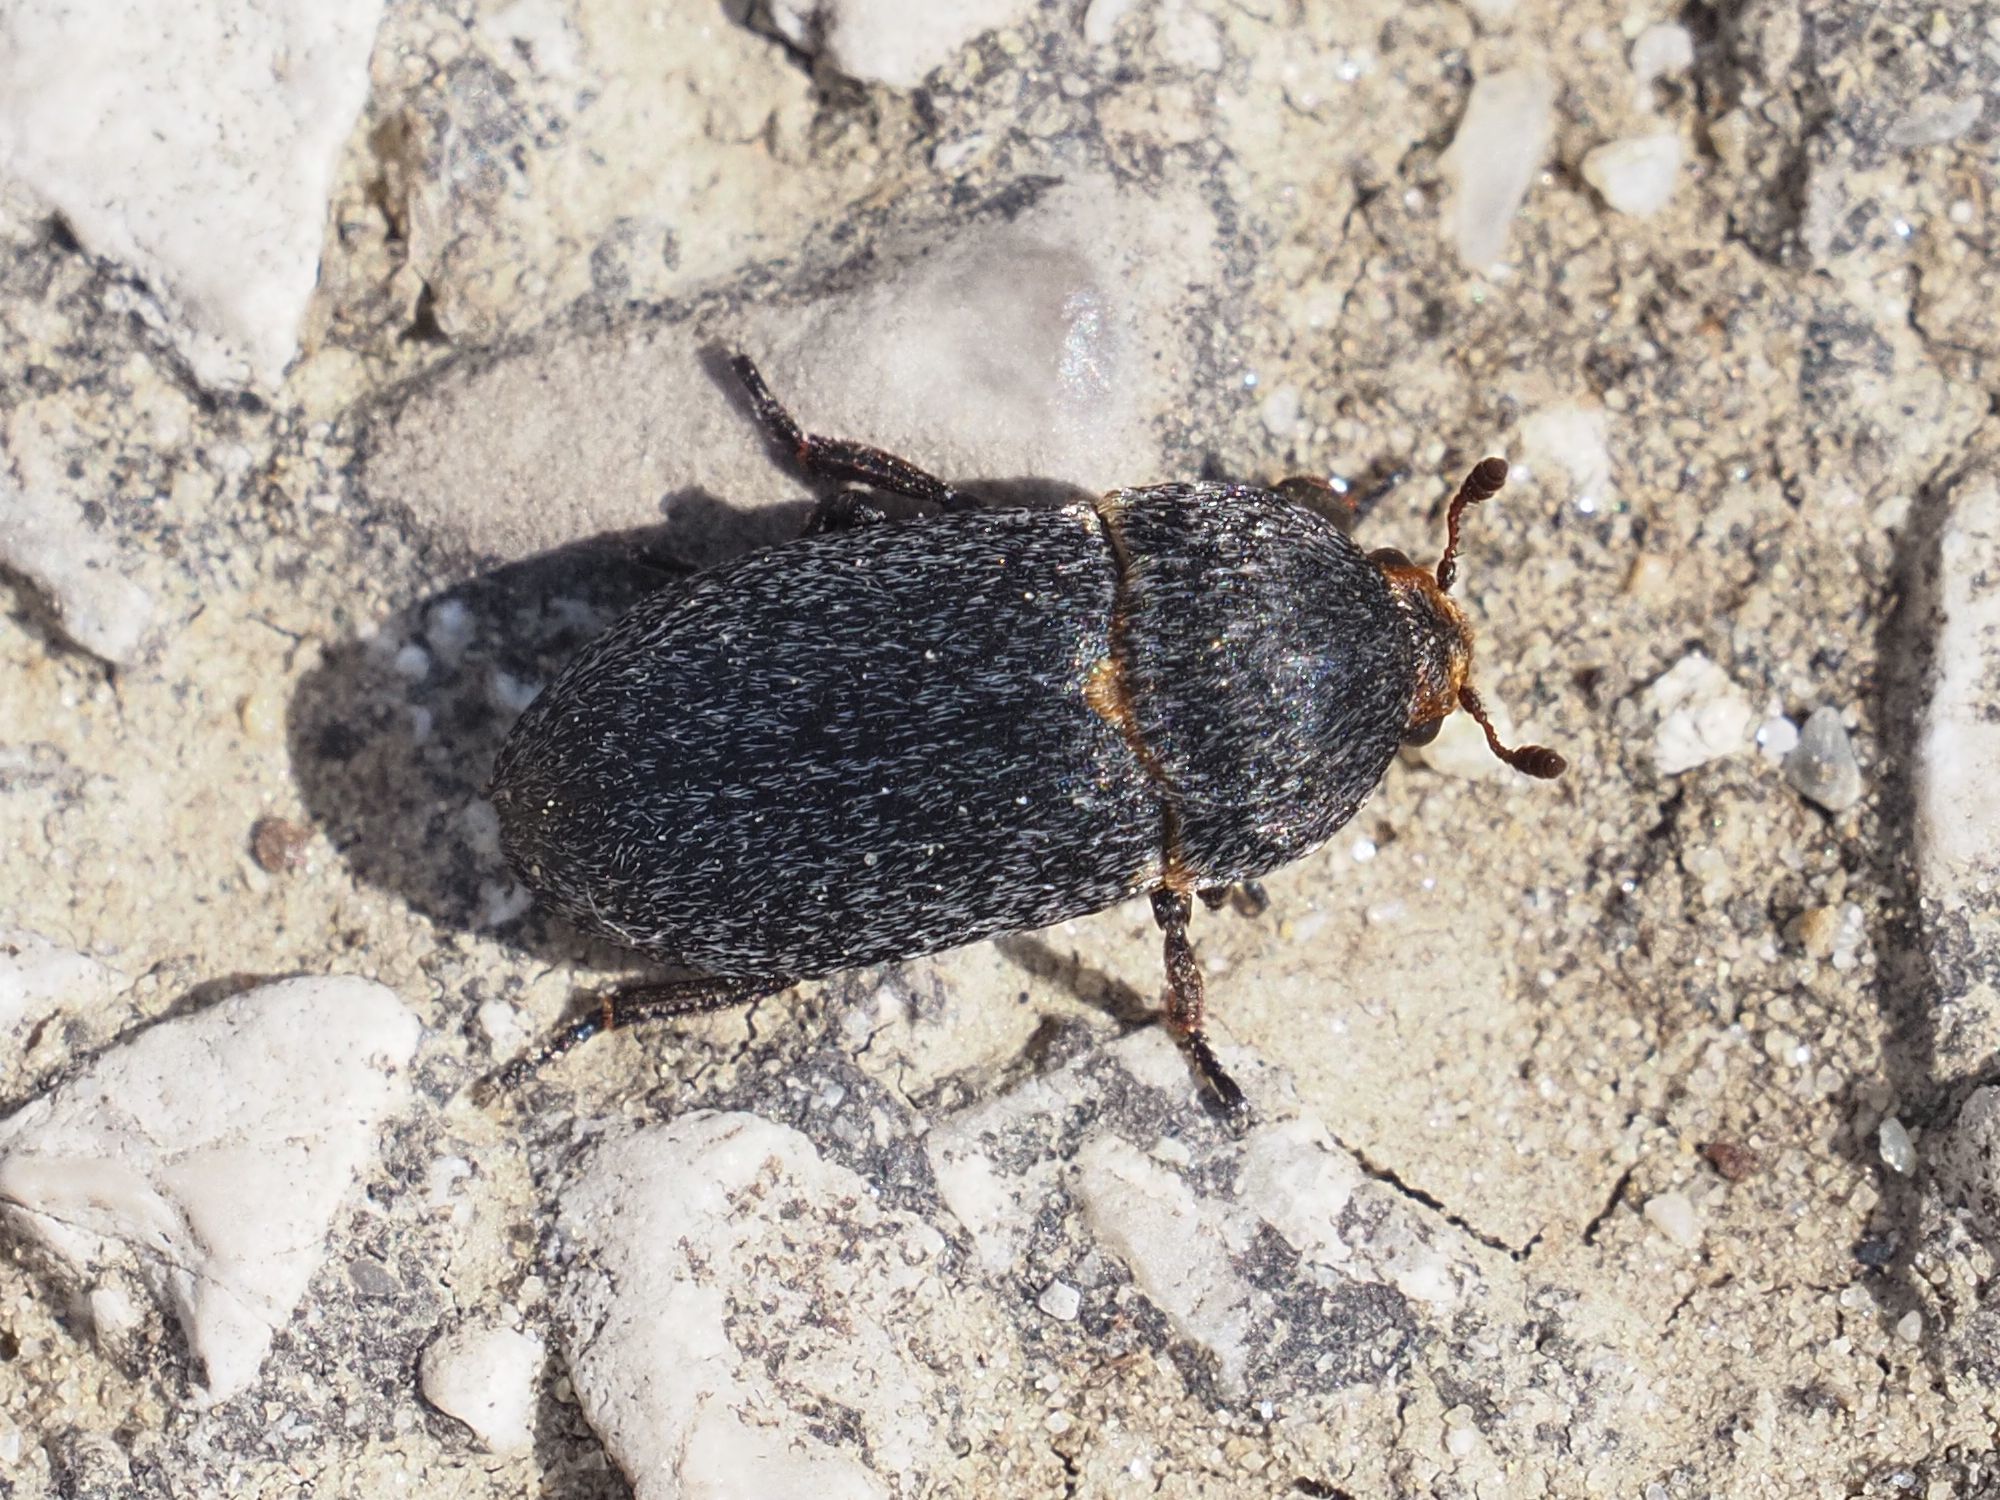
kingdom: Animalia
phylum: Arthropoda
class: Insecta
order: Coleoptera
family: Dermestidae
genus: Dermestes
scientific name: Dermestes laniarius
